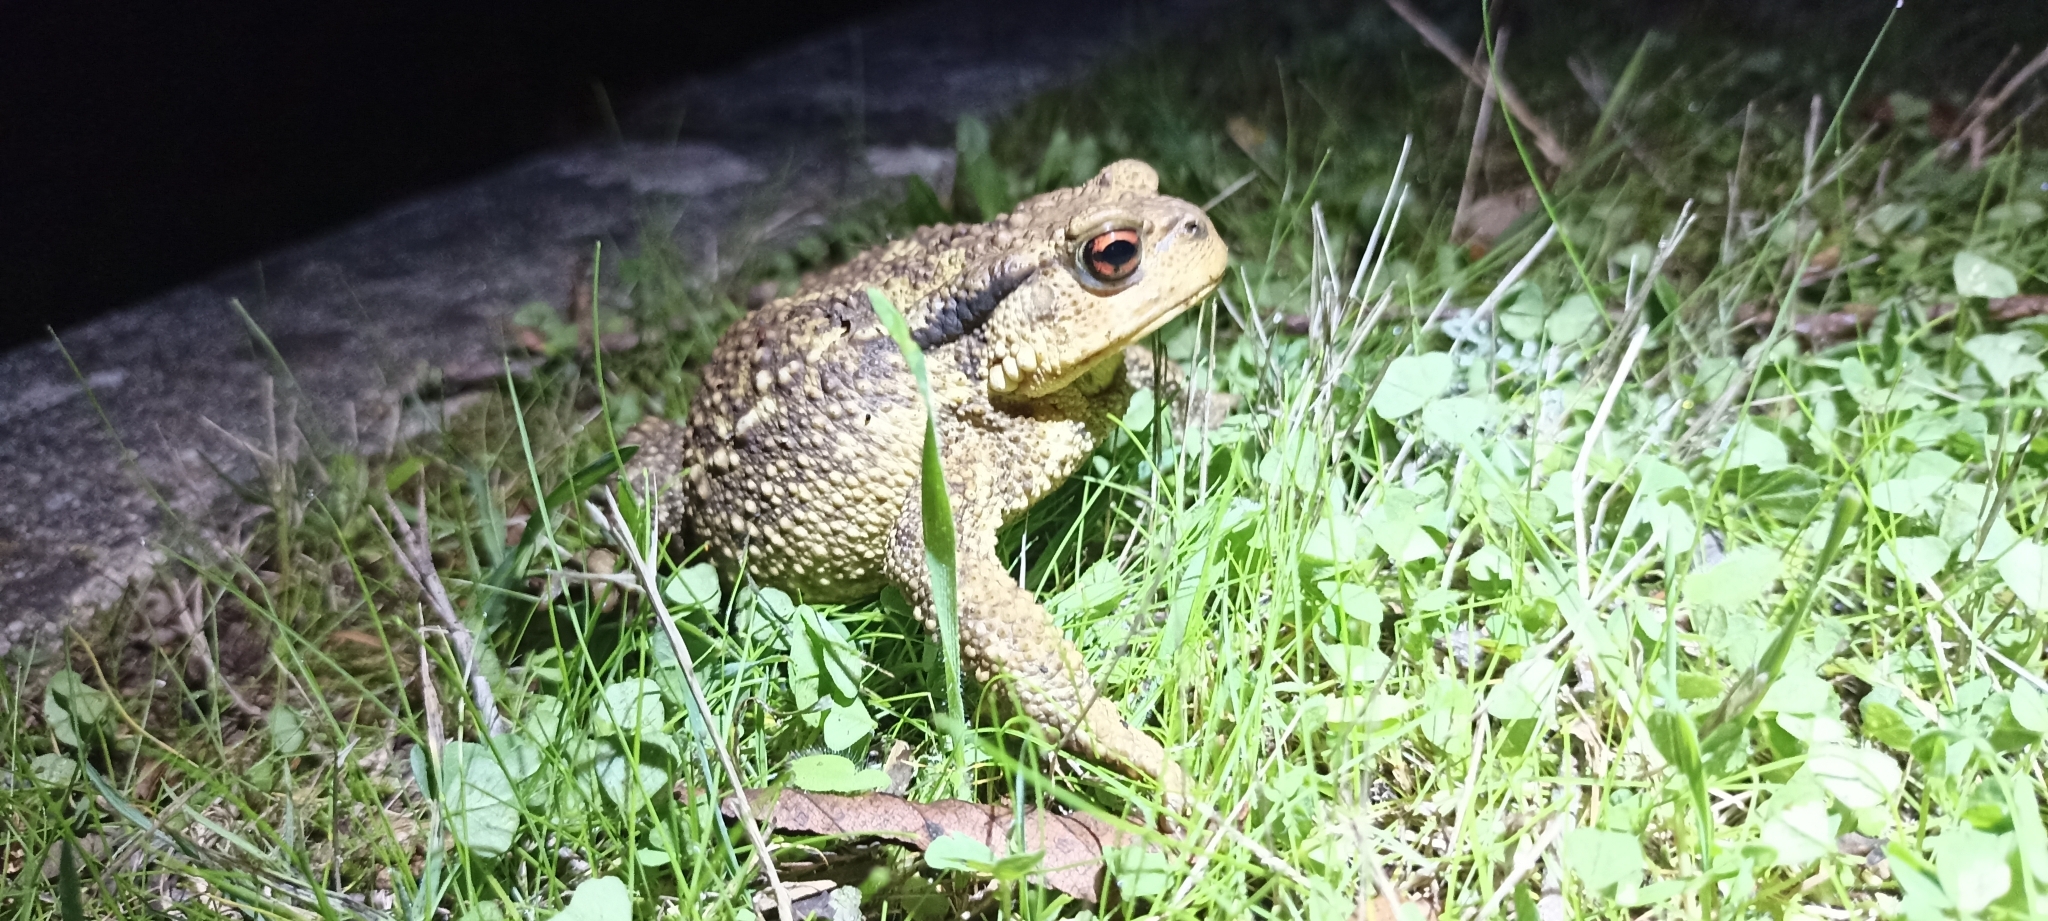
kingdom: Animalia
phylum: Chordata
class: Amphibia
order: Anura
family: Bufonidae
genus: Bufo
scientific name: Bufo spinosus
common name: Western common toad
